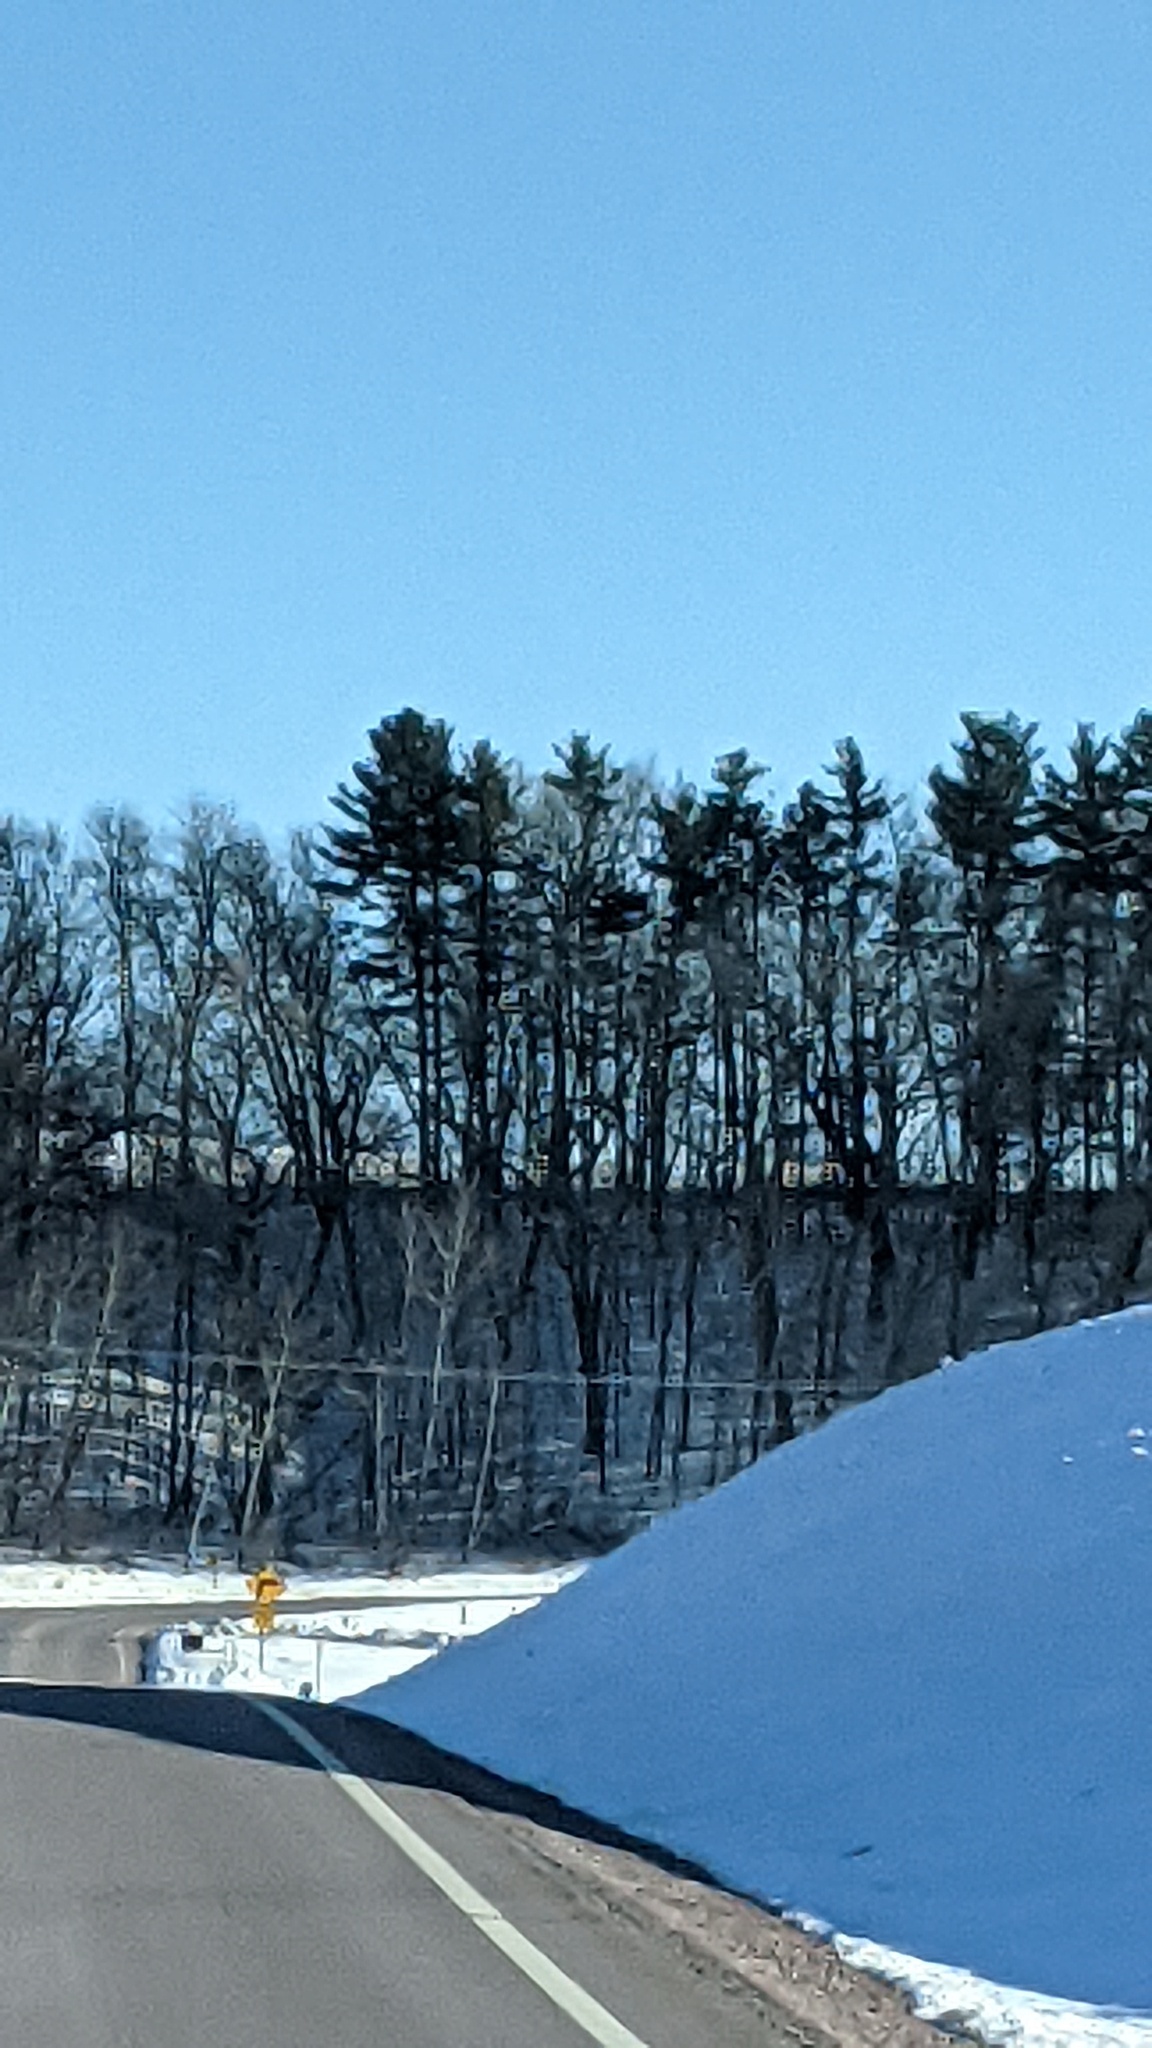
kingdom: Plantae
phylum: Tracheophyta
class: Pinopsida
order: Pinales
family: Pinaceae
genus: Pinus
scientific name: Pinus strobus
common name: Weymouth pine
